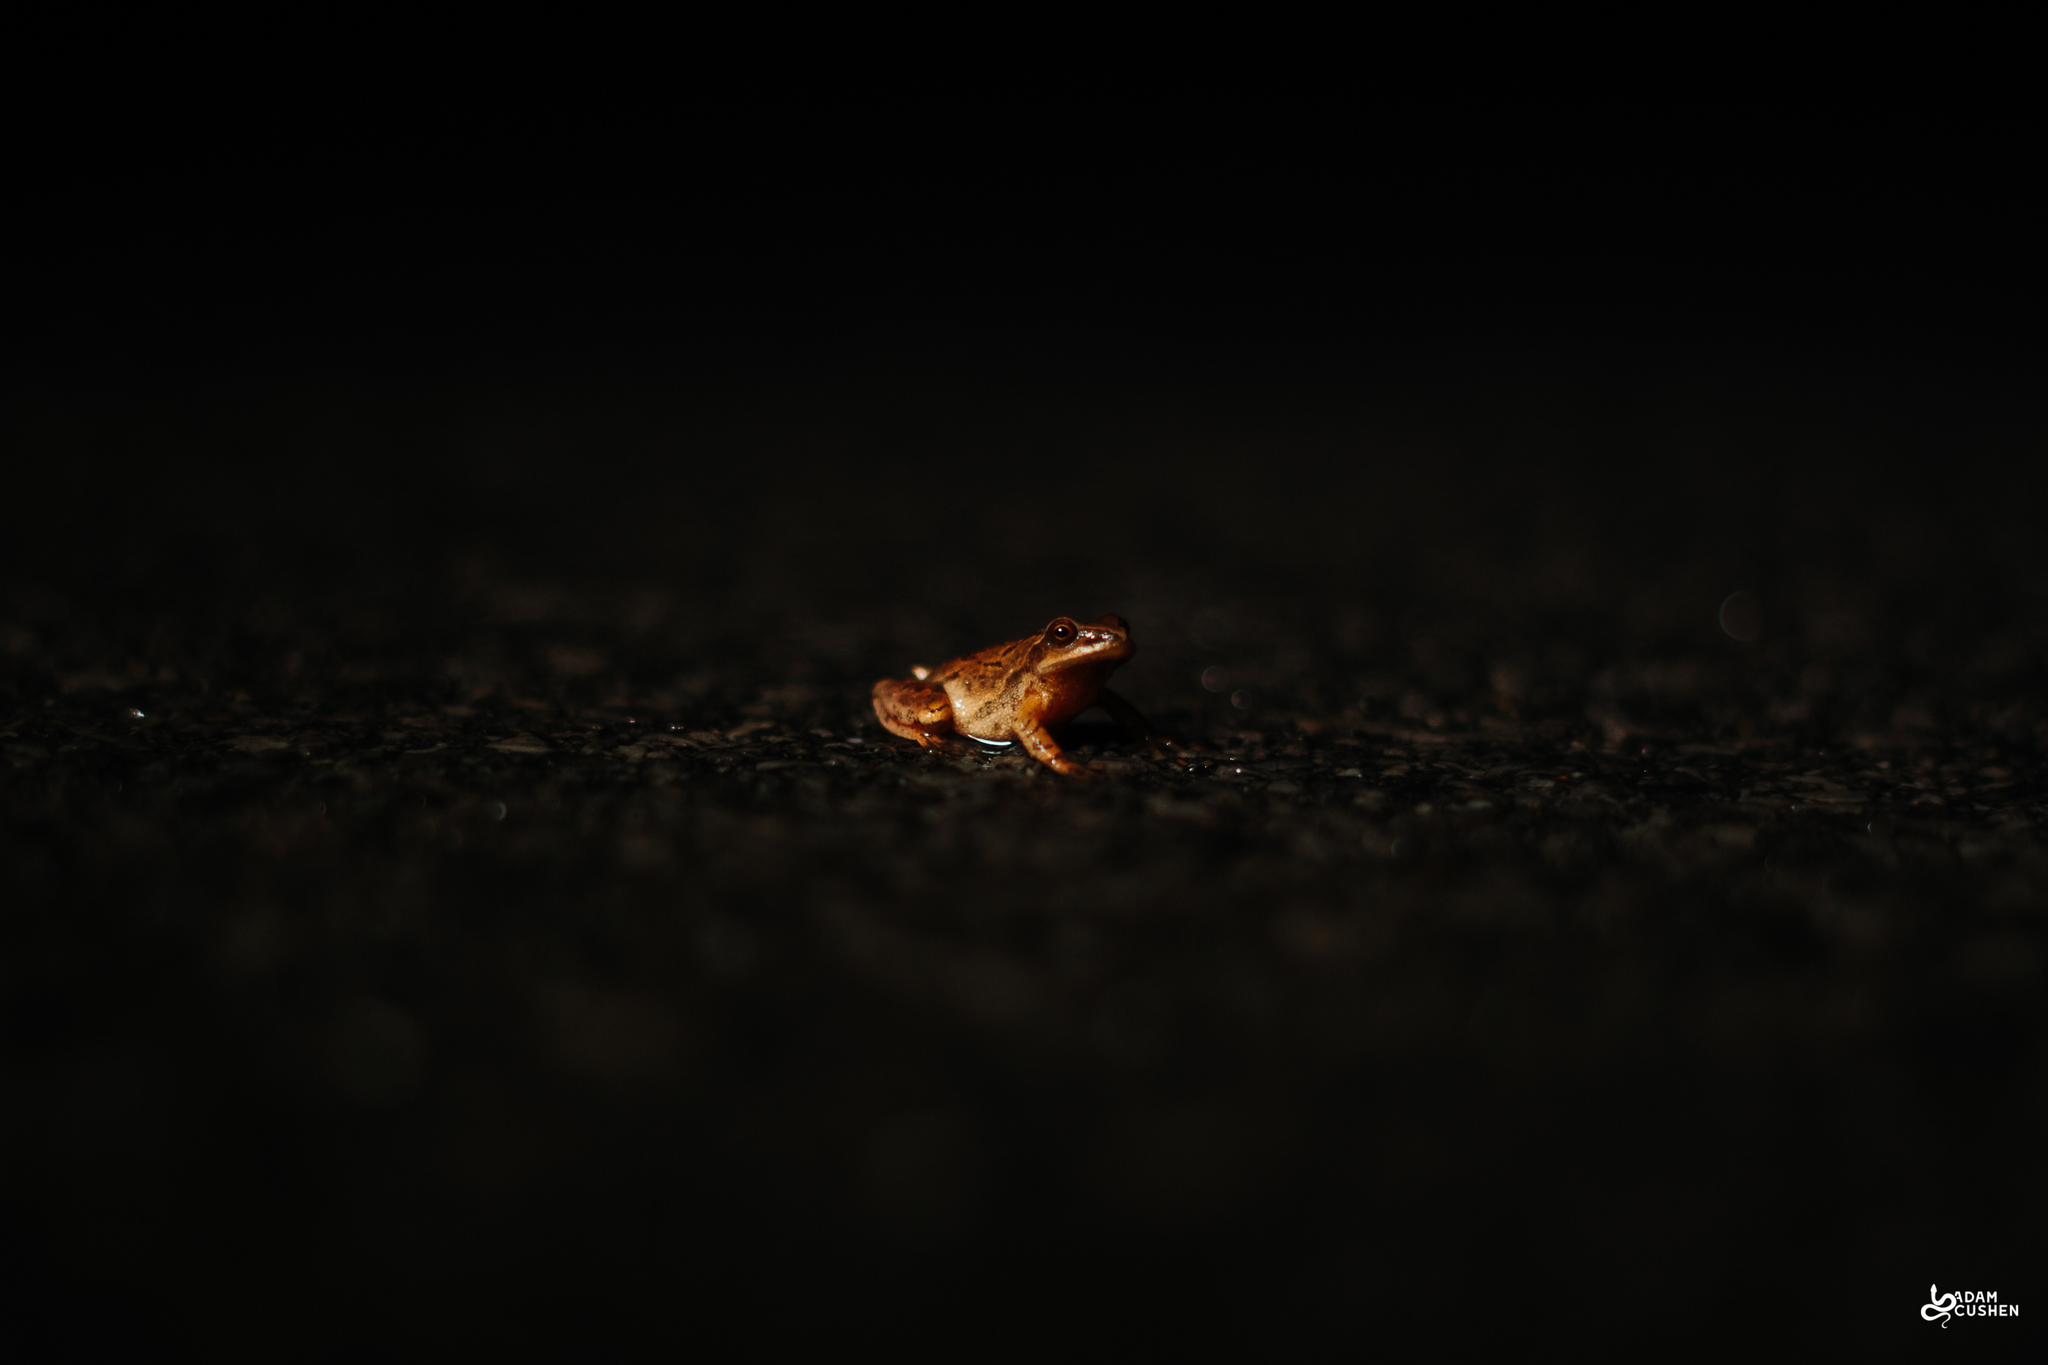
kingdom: Animalia
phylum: Chordata
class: Amphibia
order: Anura
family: Hylidae
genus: Pseudacris
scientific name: Pseudacris crucifer
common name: Spring peeper
